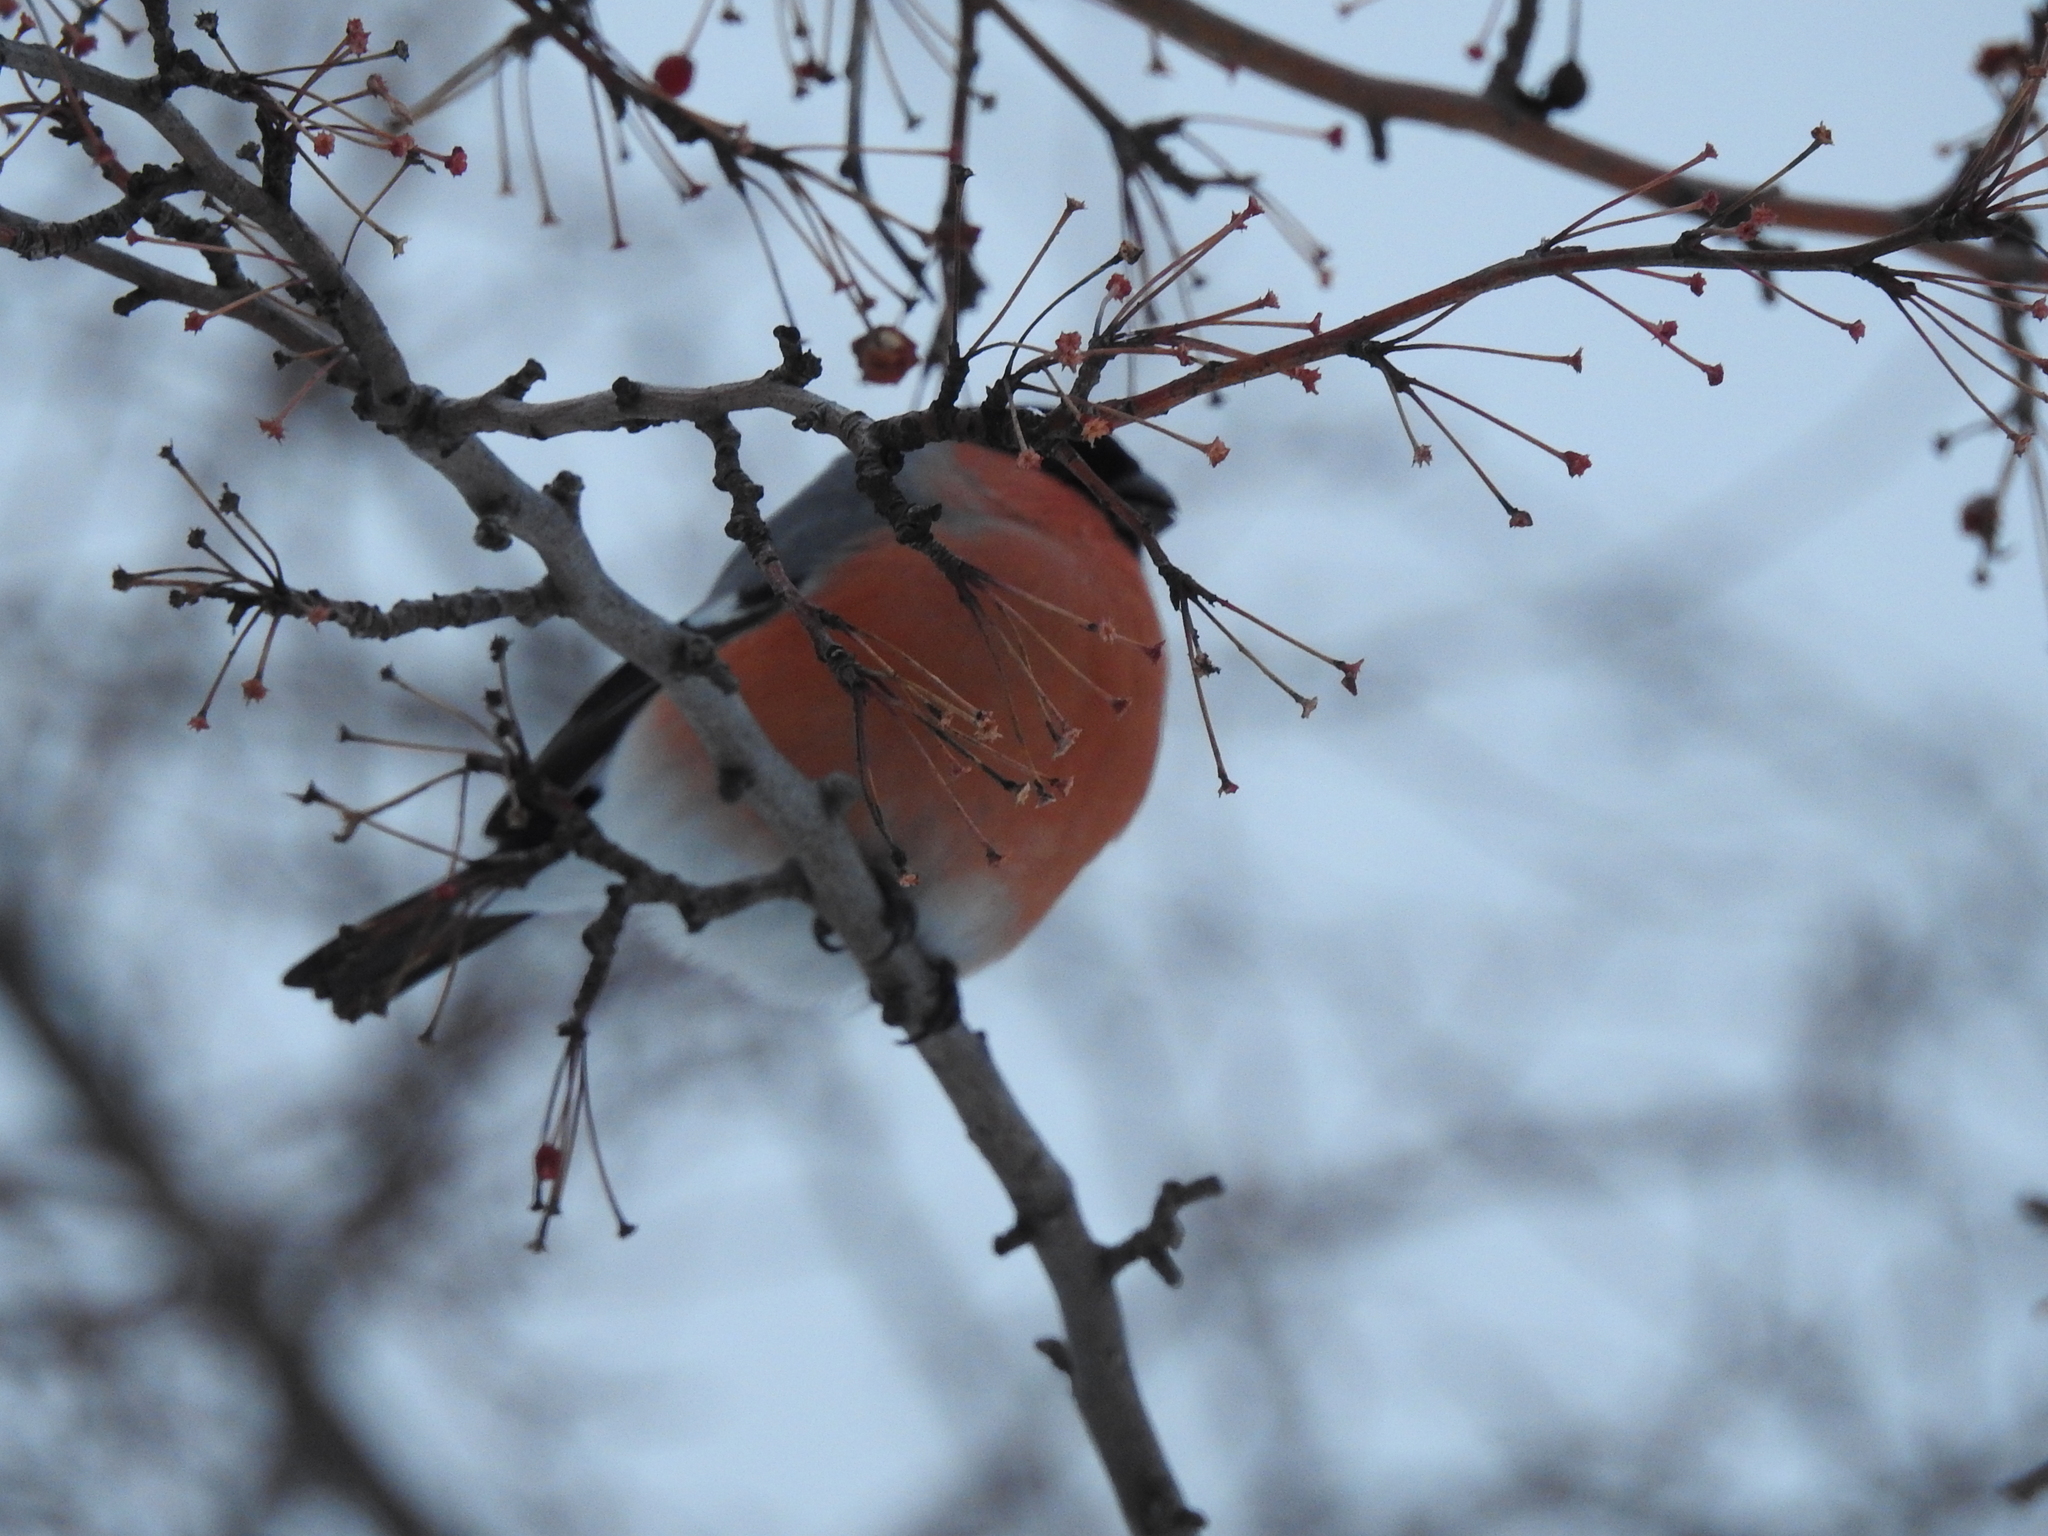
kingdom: Animalia
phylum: Chordata
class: Aves
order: Passeriformes
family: Fringillidae
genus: Pyrrhula
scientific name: Pyrrhula pyrrhula
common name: Eurasian bullfinch
